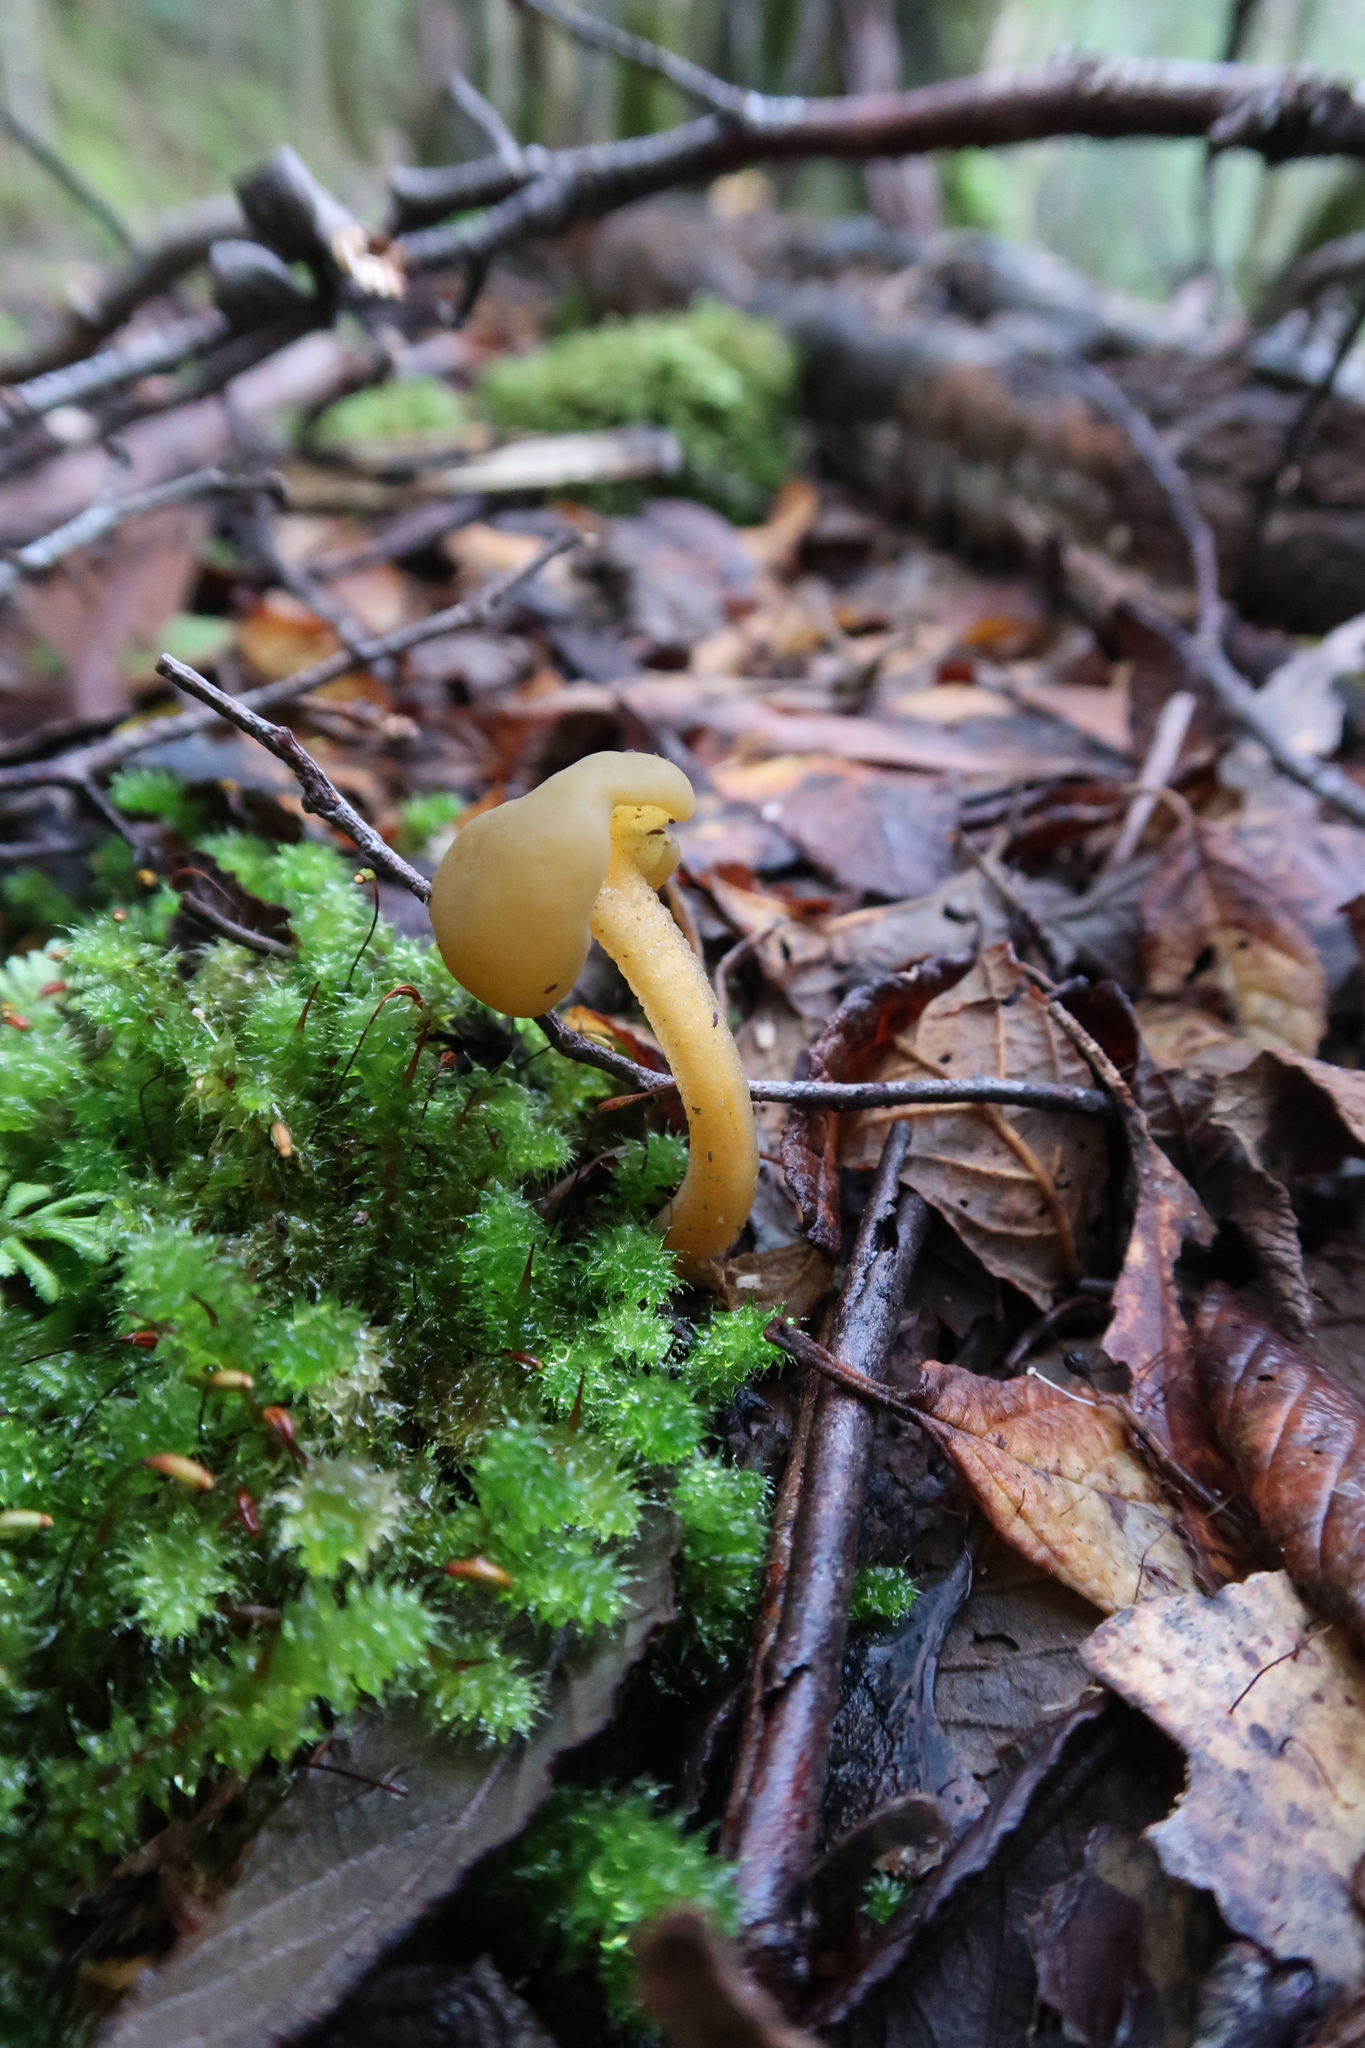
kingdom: Fungi
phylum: Ascomycota
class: Leotiomycetes
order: Leotiales
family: Leotiaceae
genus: Leotia
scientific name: Leotia lubrica
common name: Jellybaby
